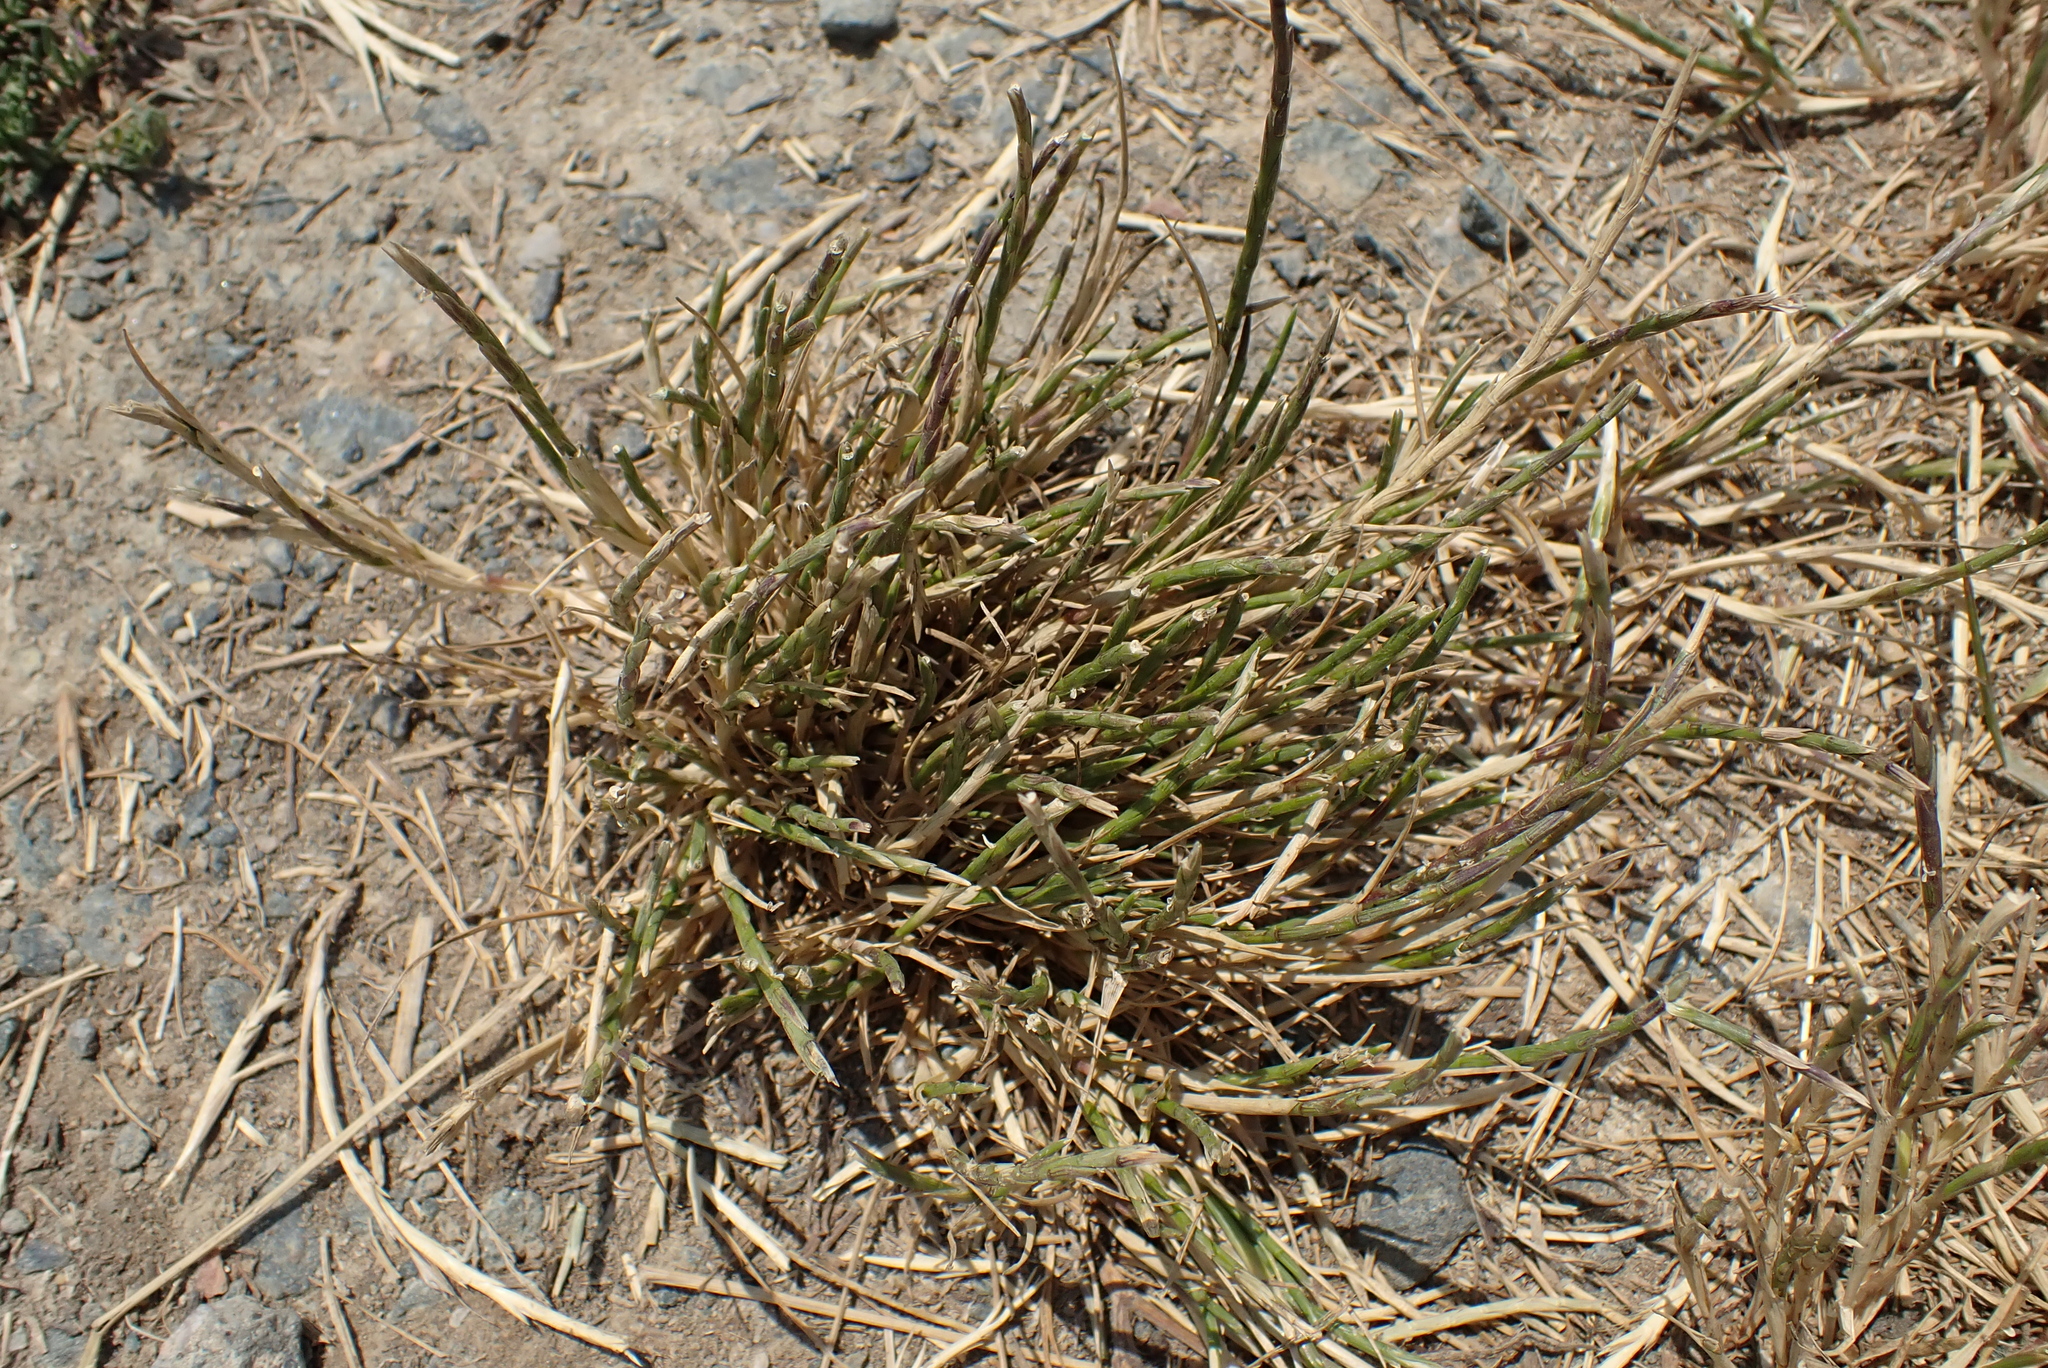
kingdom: Plantae
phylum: Tracheophyta
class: Liliopsida
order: Poales
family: Poaceae
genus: Parapholis
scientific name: Parapholis incurva
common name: Curved sicklegrass
